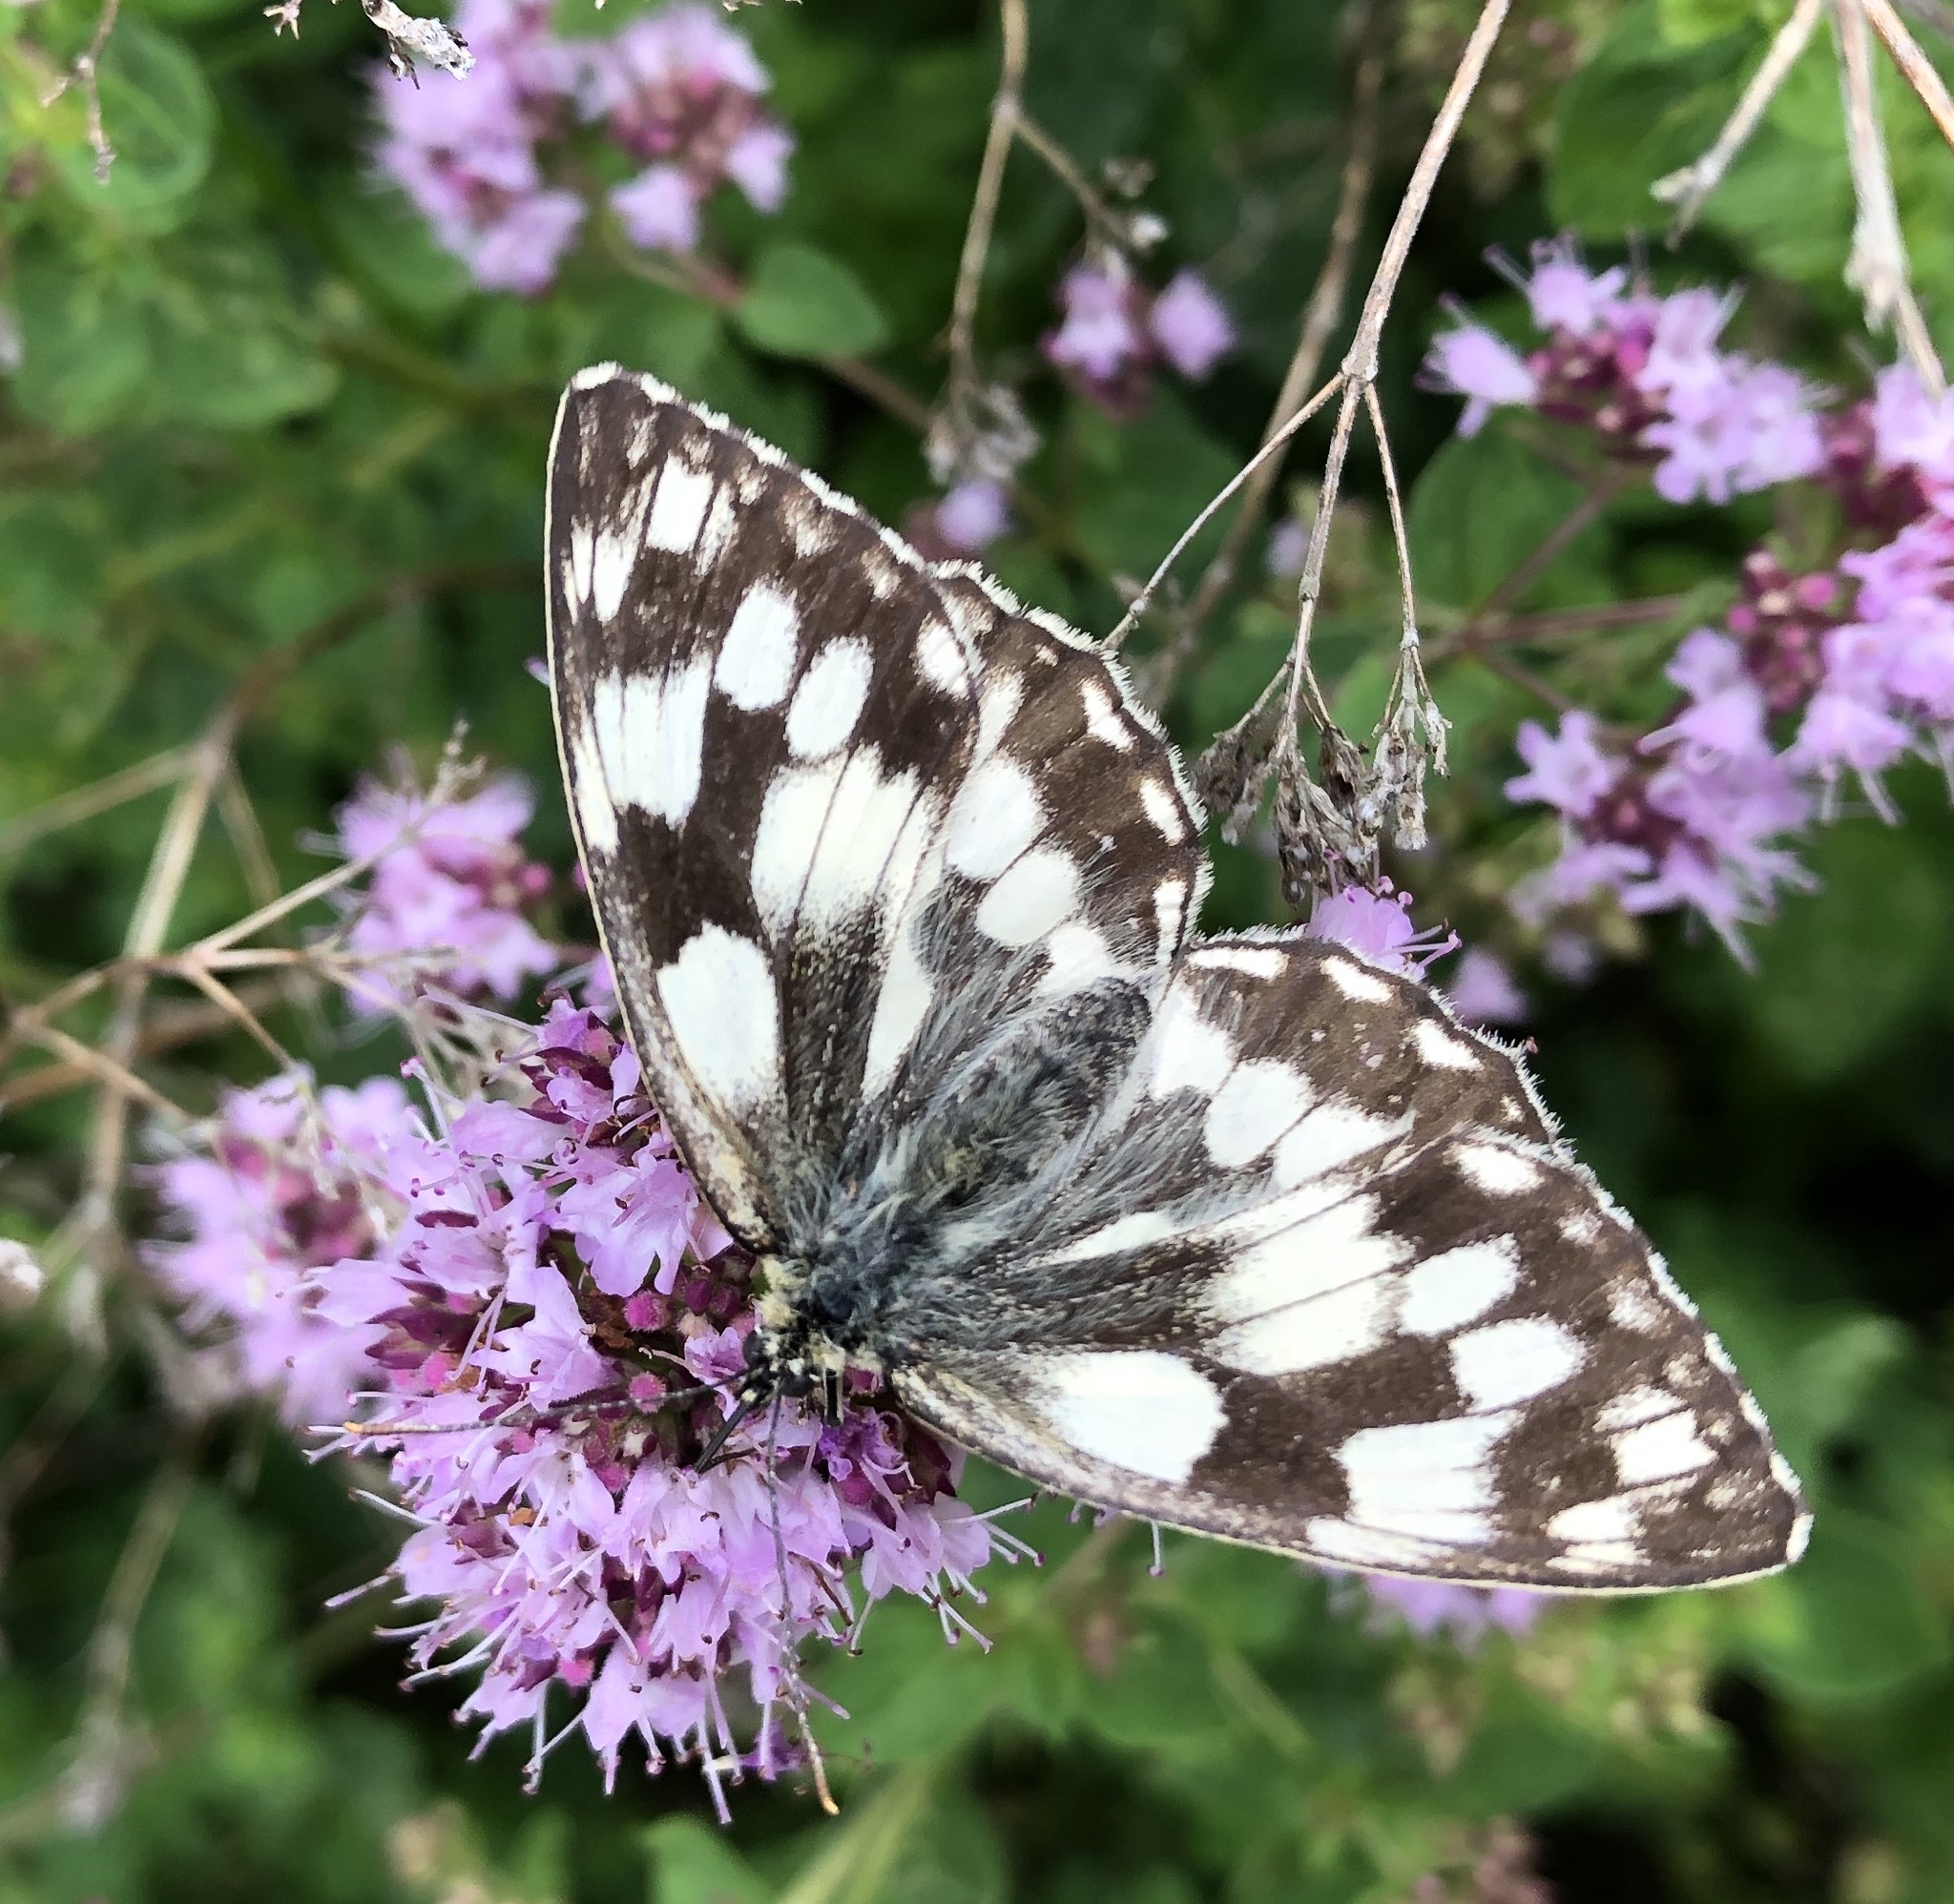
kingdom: Animalia
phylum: Arthropoda
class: Insecta
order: Lepidoptera
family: Nymphalidae
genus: Melanargia
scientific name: Melanargia galathea
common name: Marbled white
